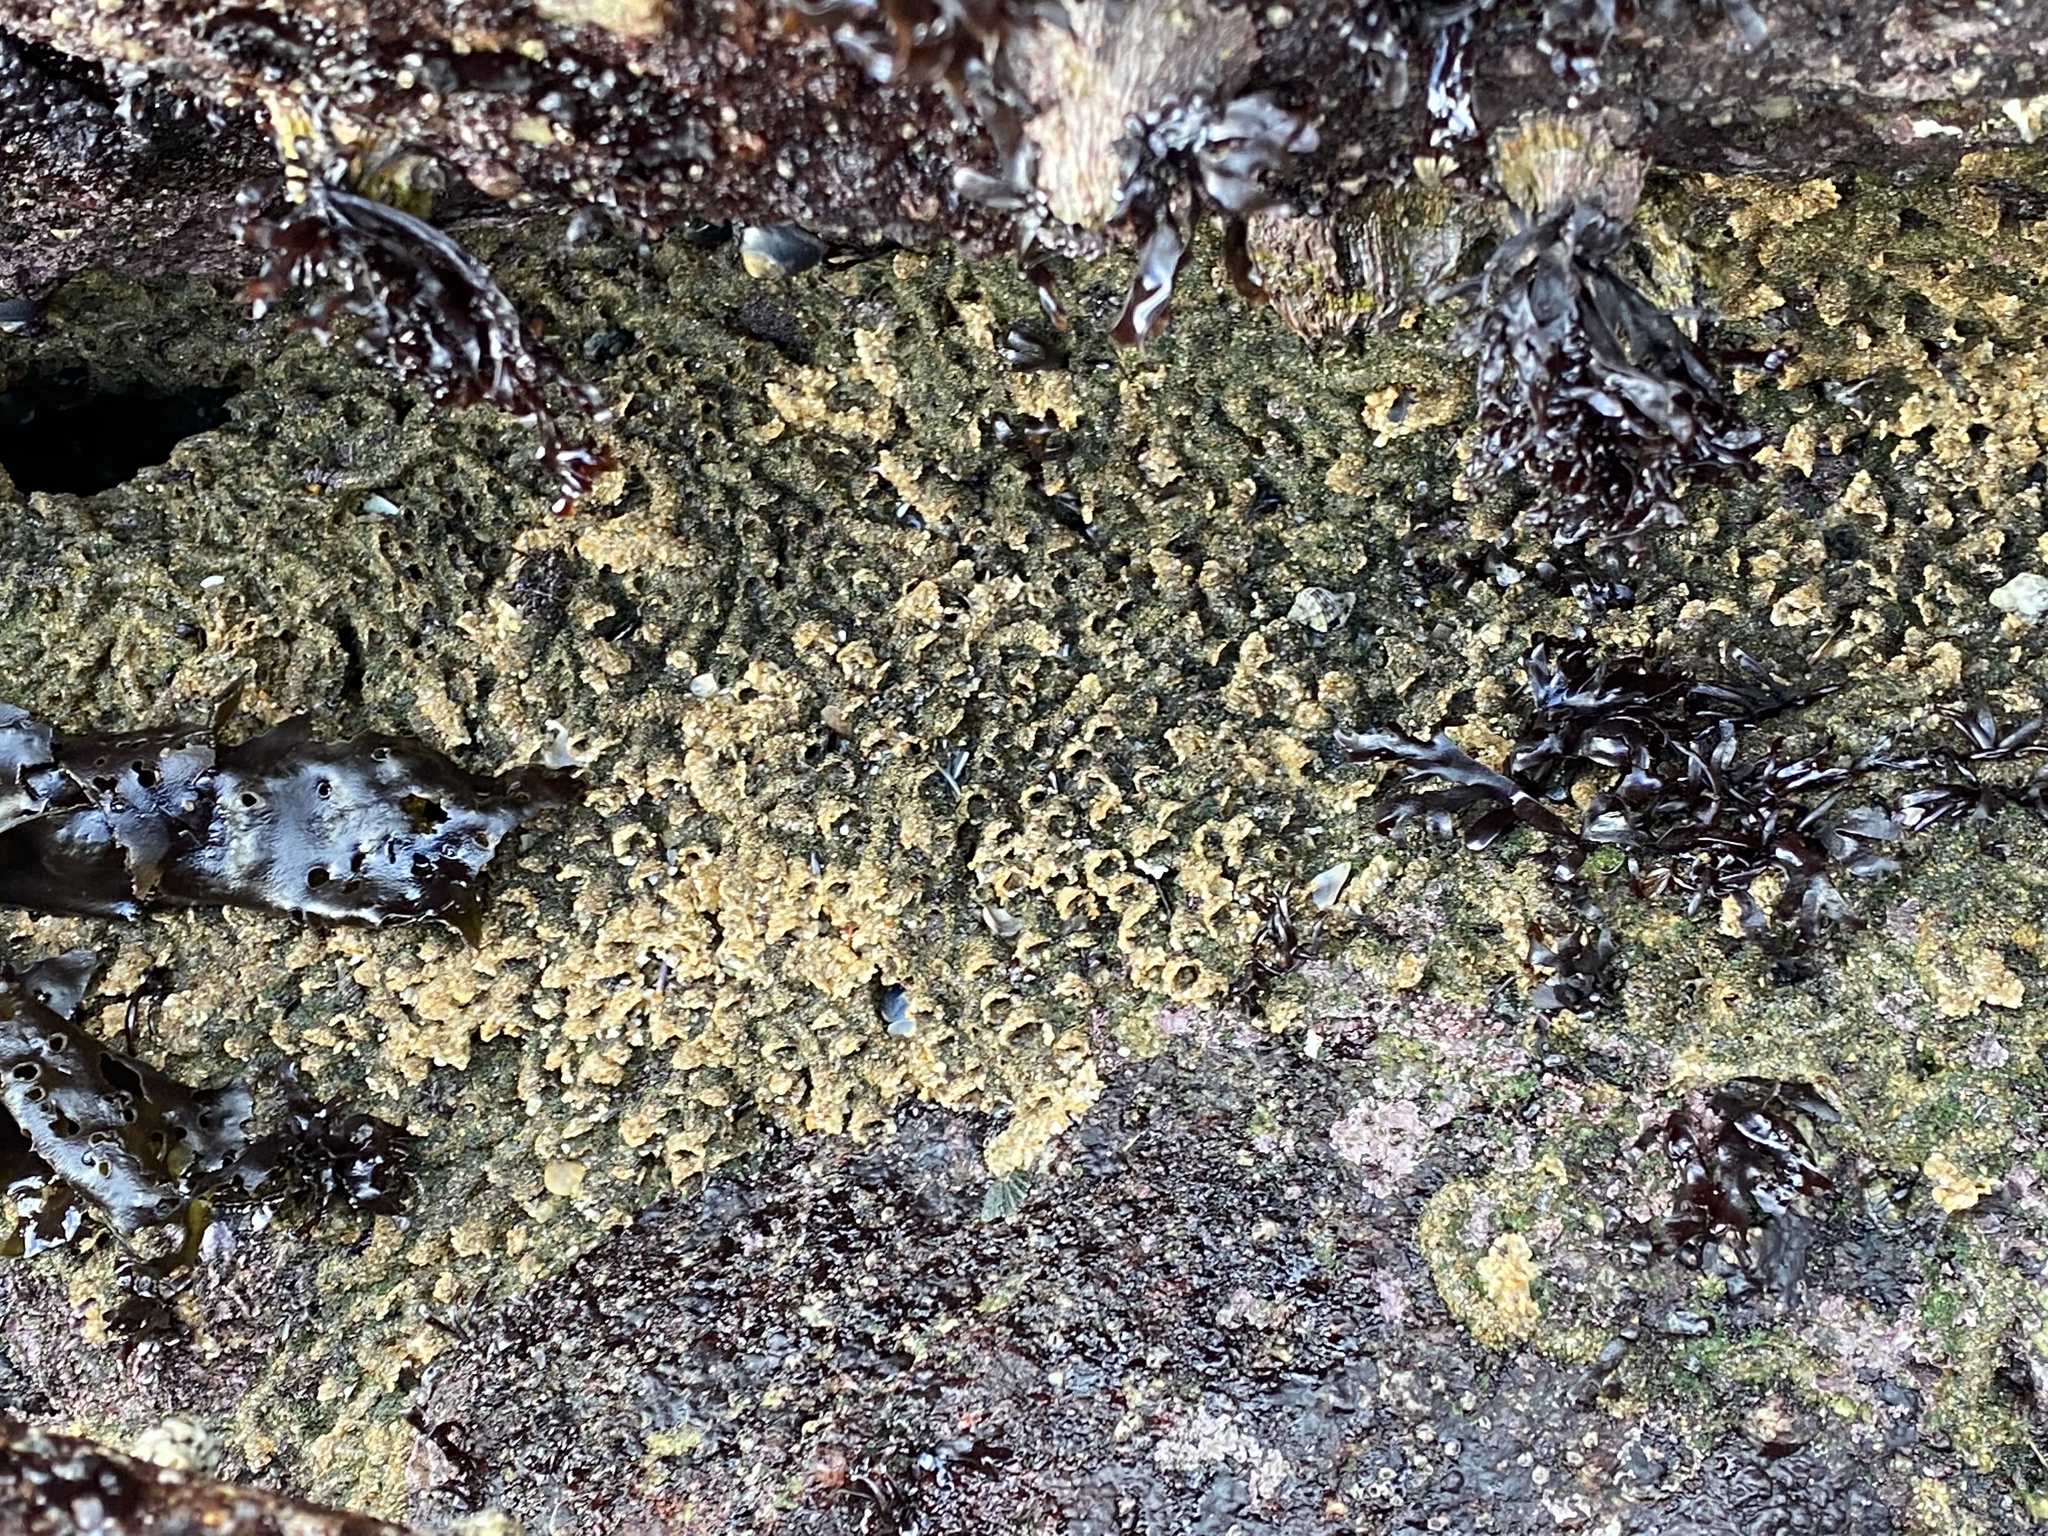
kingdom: Animalia
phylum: Annelida
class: Polychaeta
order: Sabellida
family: Sabellariidae
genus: Phragmatopoma
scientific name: Phragmatopoma californica
